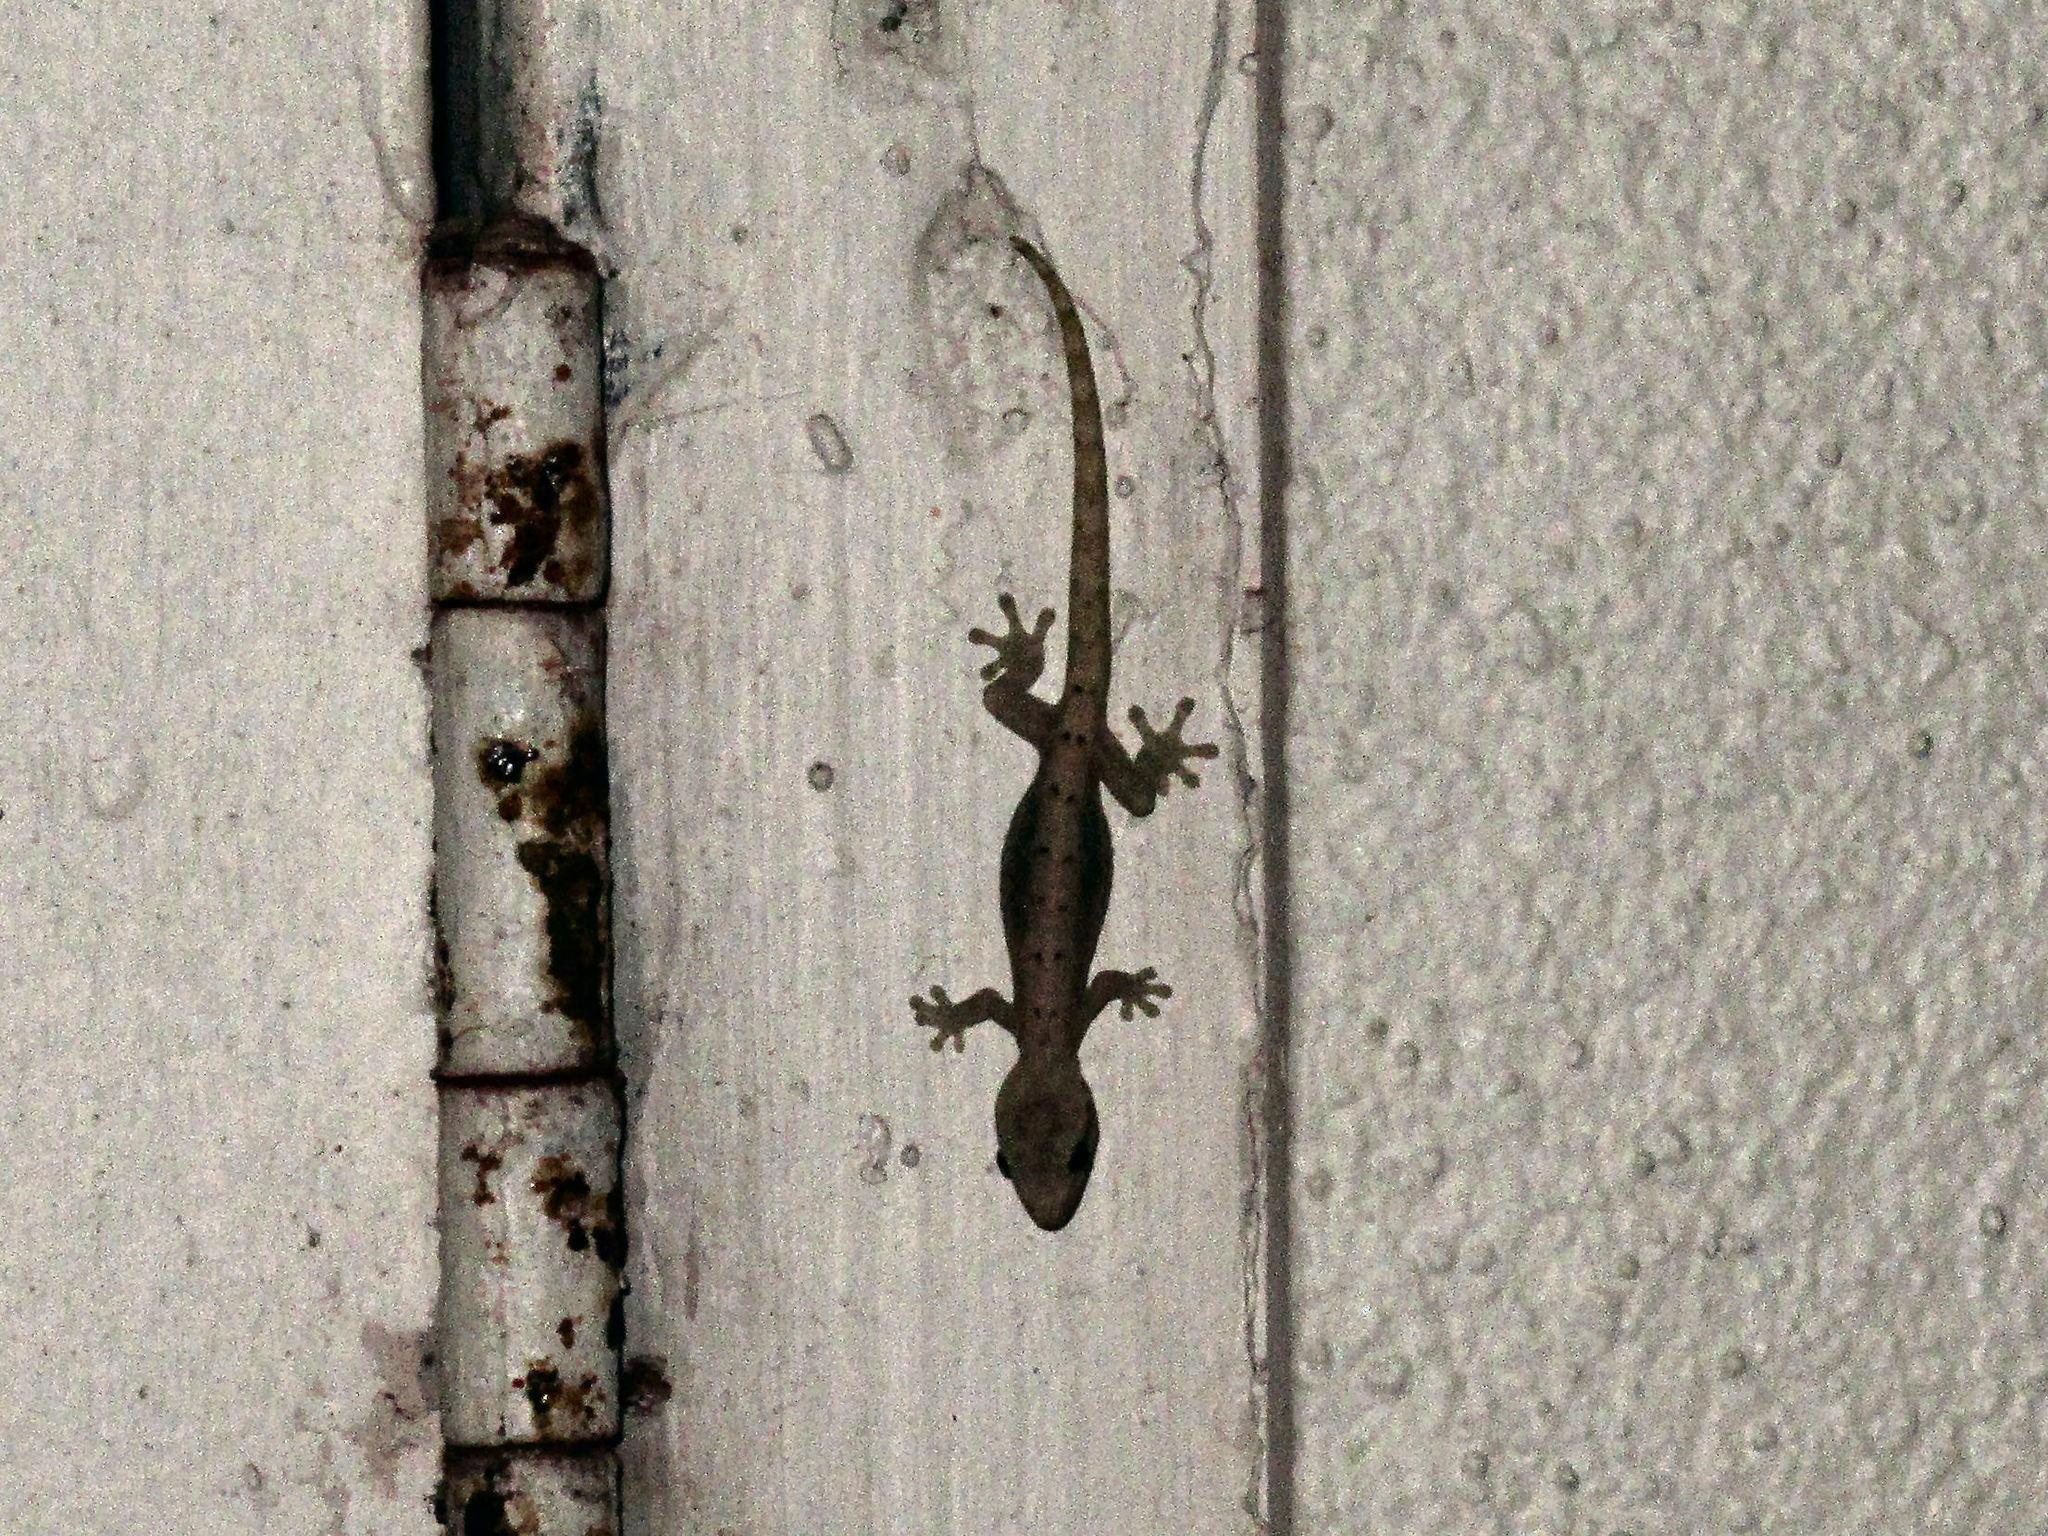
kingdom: Animalia
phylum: Chordata
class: Squamata
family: Gekkonidae
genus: Lepidodactylus
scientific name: Lepidodactylus lugubris
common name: Mourning gecko
